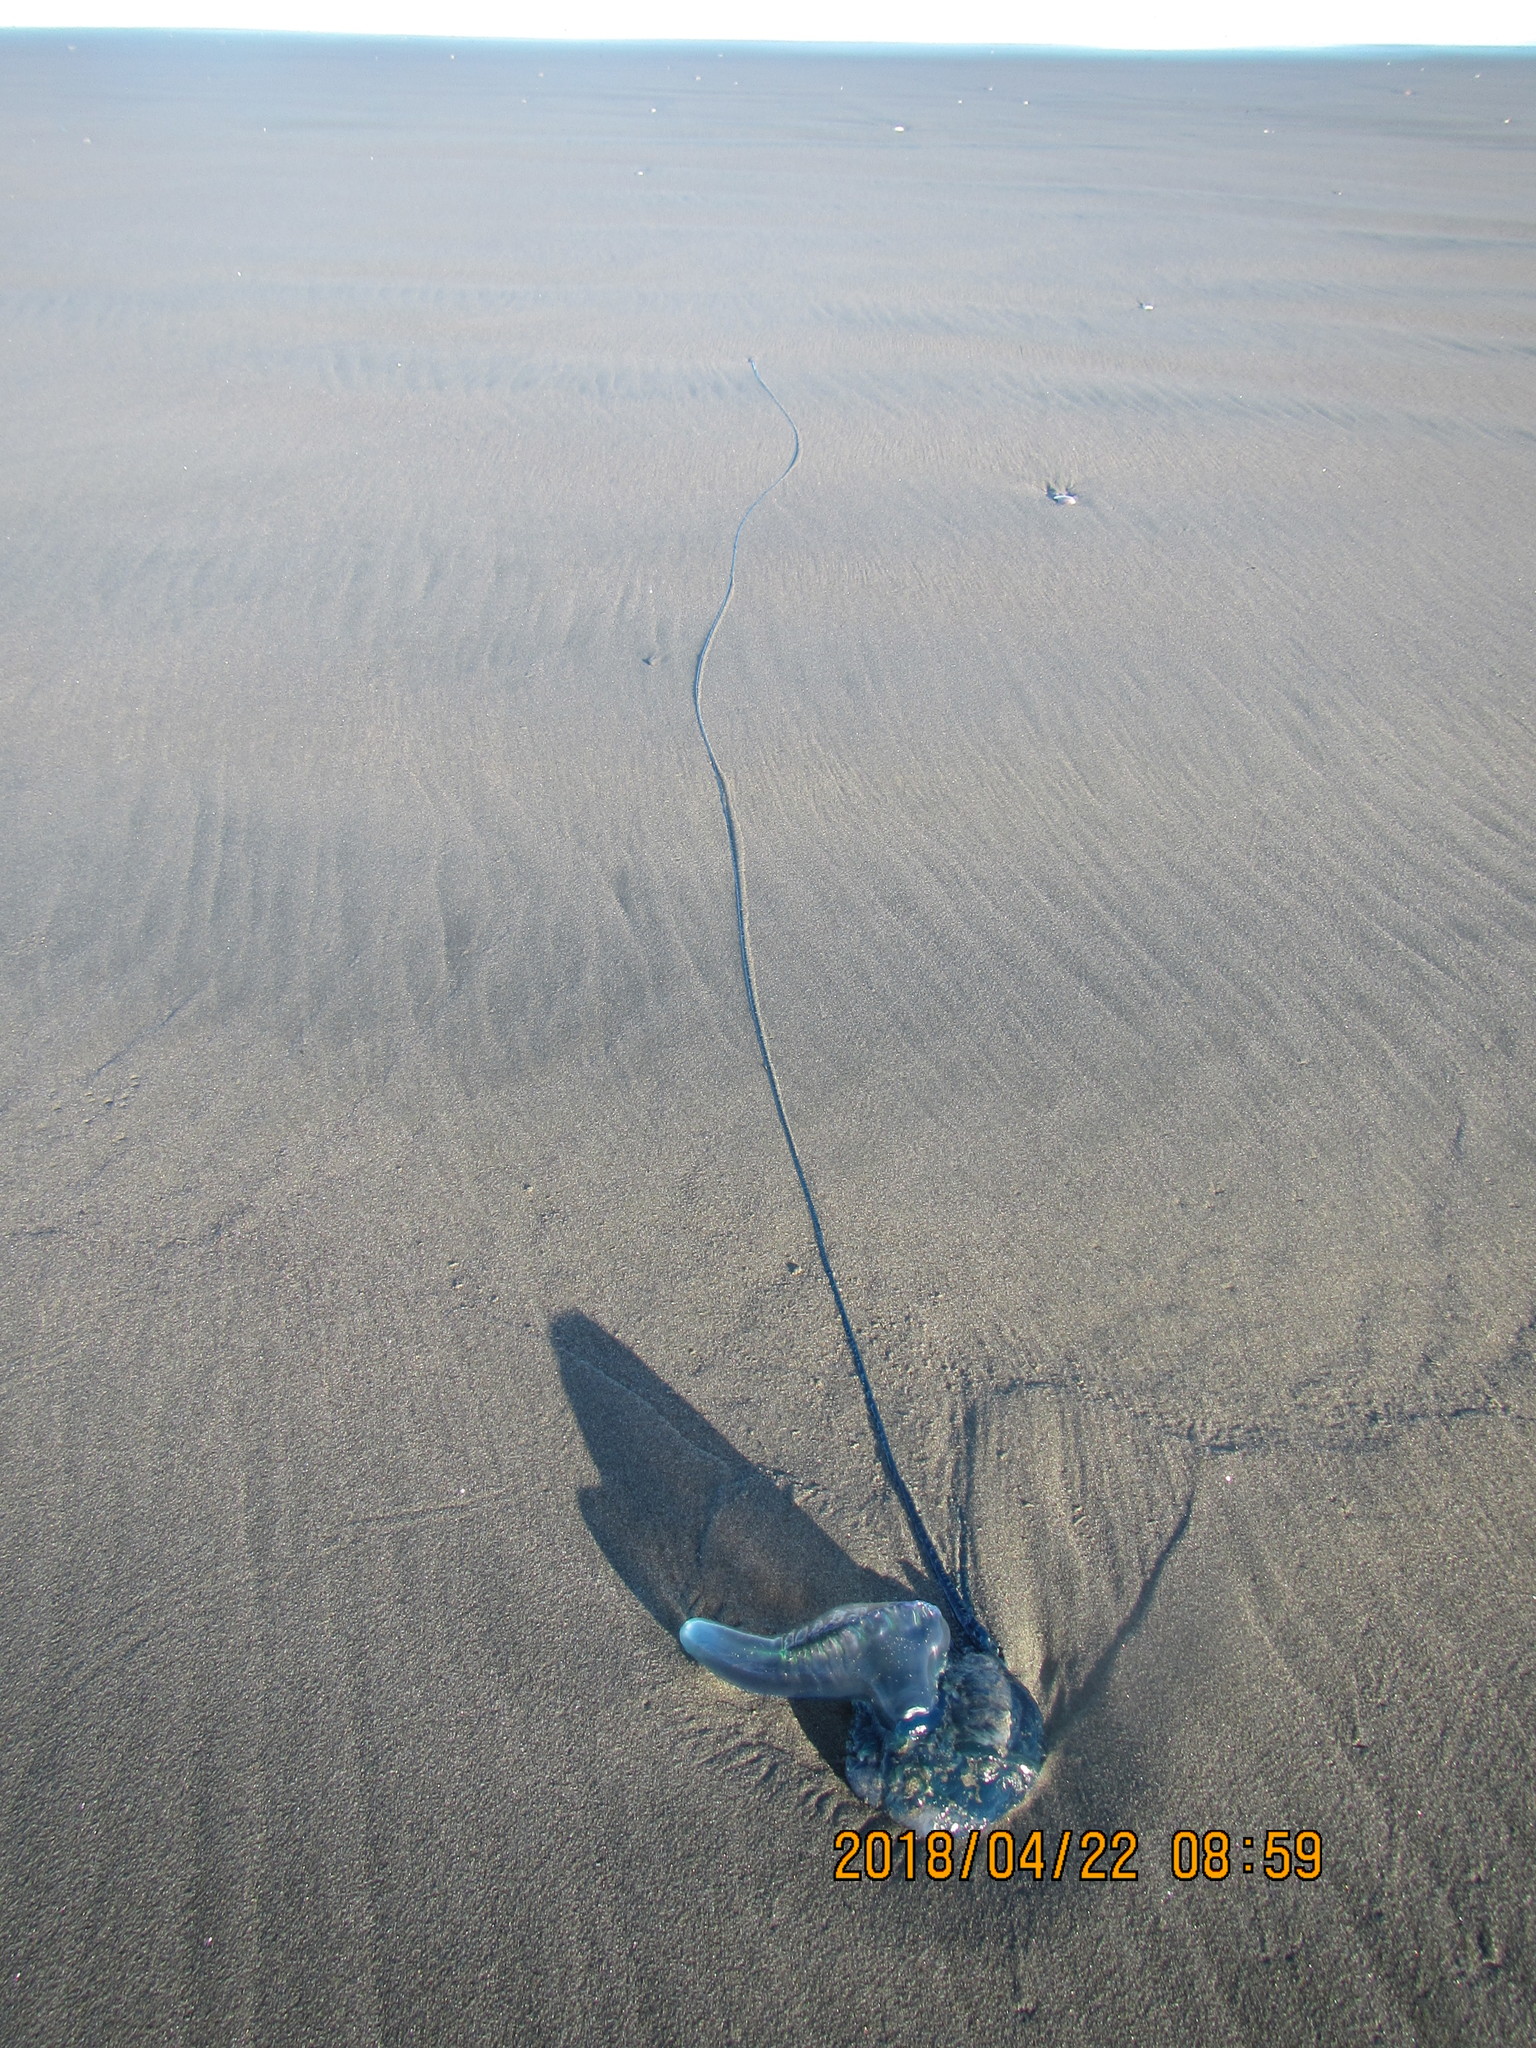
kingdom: Animalia
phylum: Cnidaria
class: Hydrozoa
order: Siphonophorae
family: Physaliidae
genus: Physalia
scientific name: Physalia physalis
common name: Portuguese man-of-war
